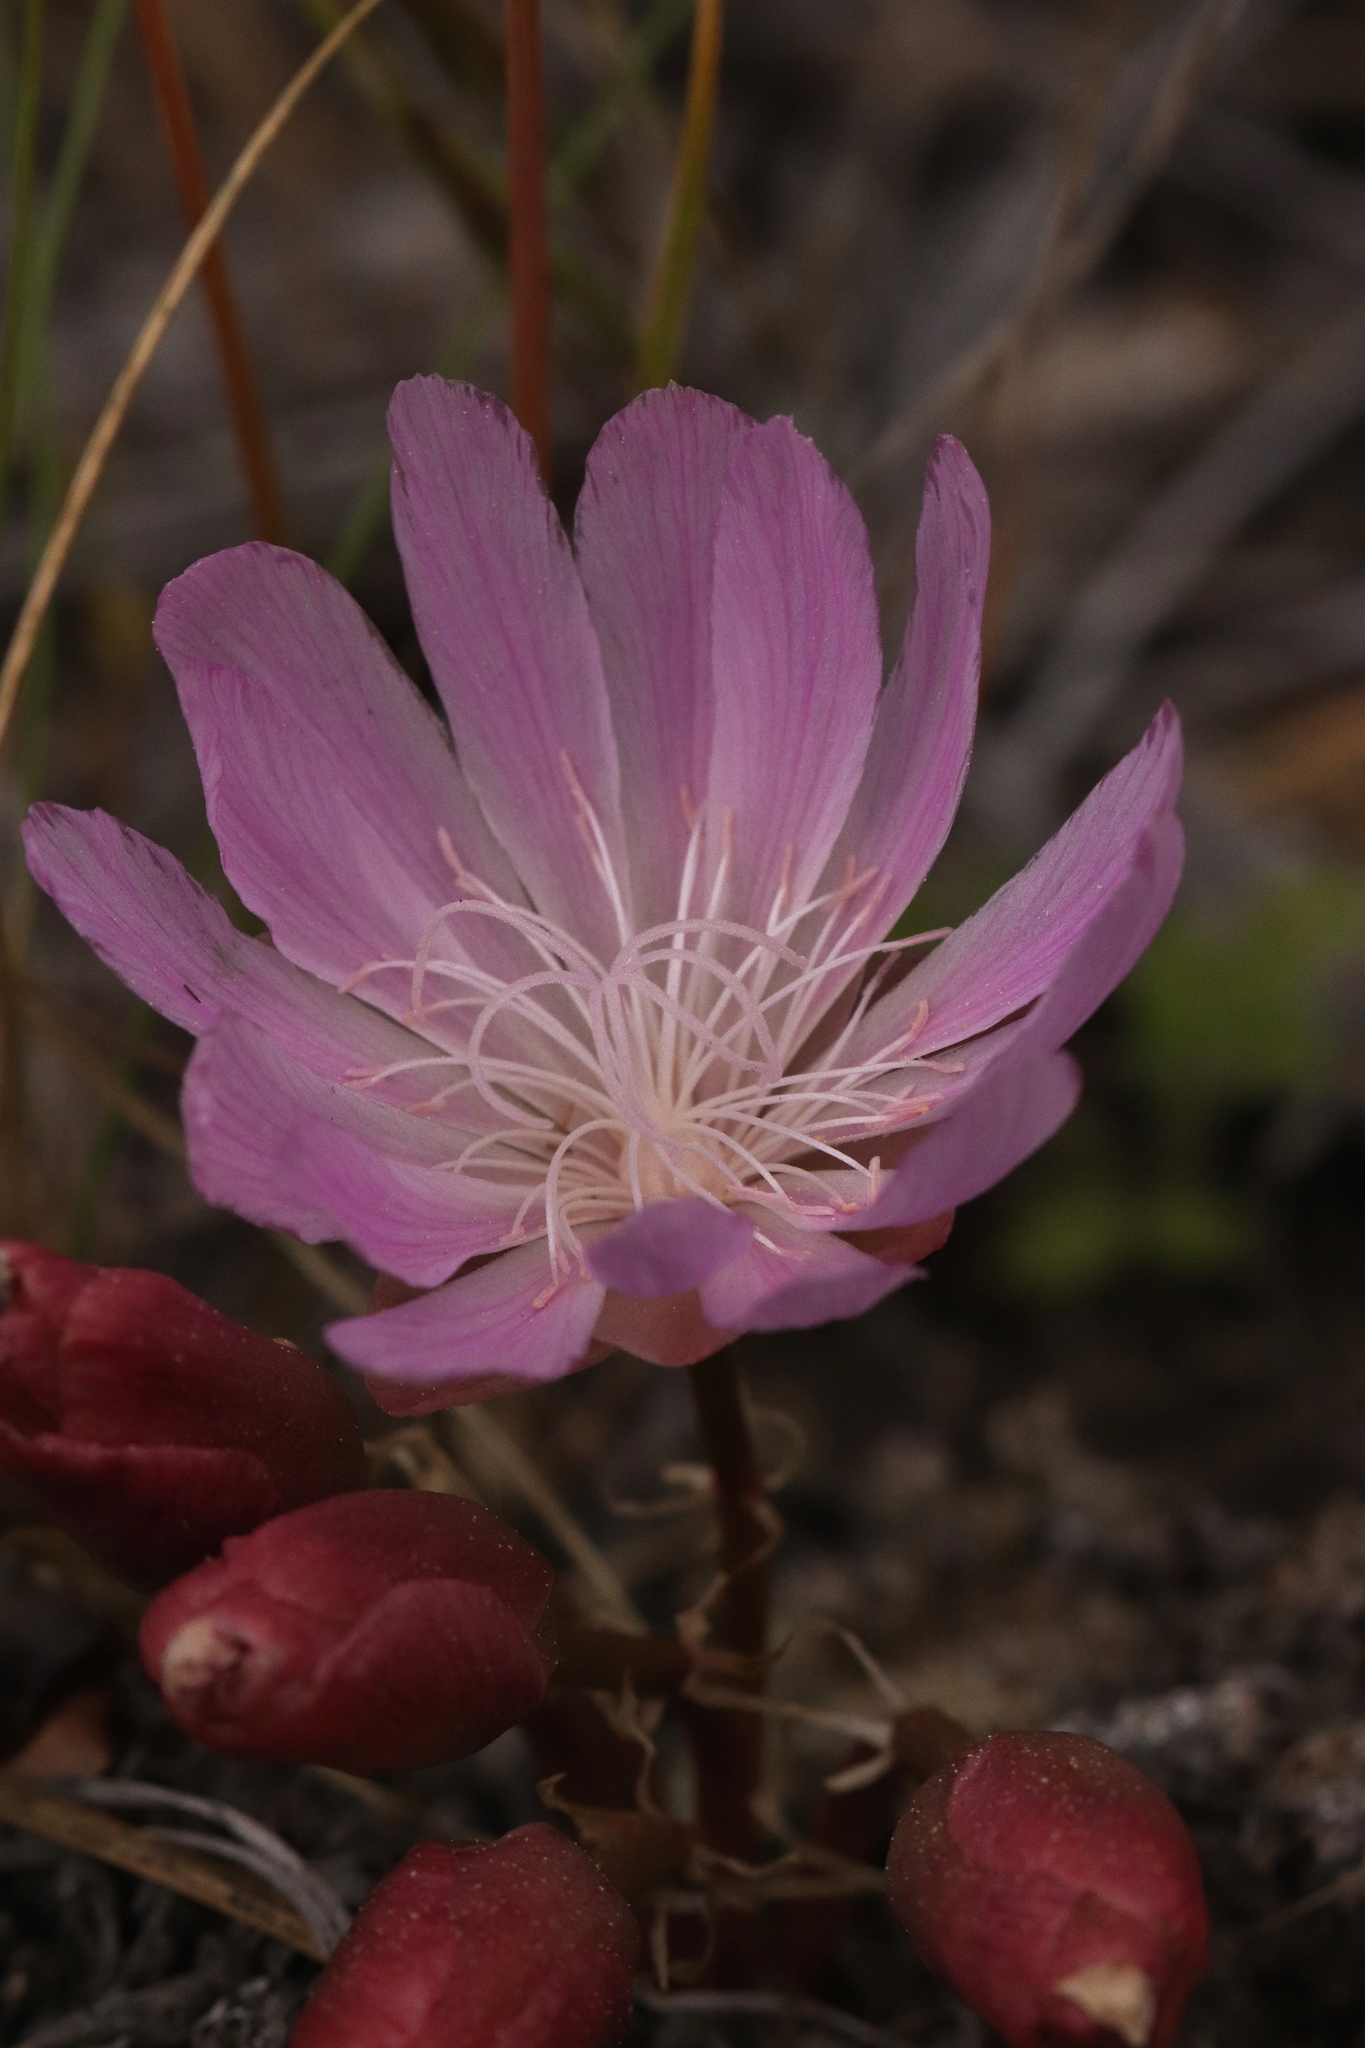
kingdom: Plantae
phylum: Tracheophyta
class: Magnoliopsida
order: Caryophyllales
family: Montiaceae
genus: Lewisia
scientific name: Lewisia rediviva
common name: Bitter-root
